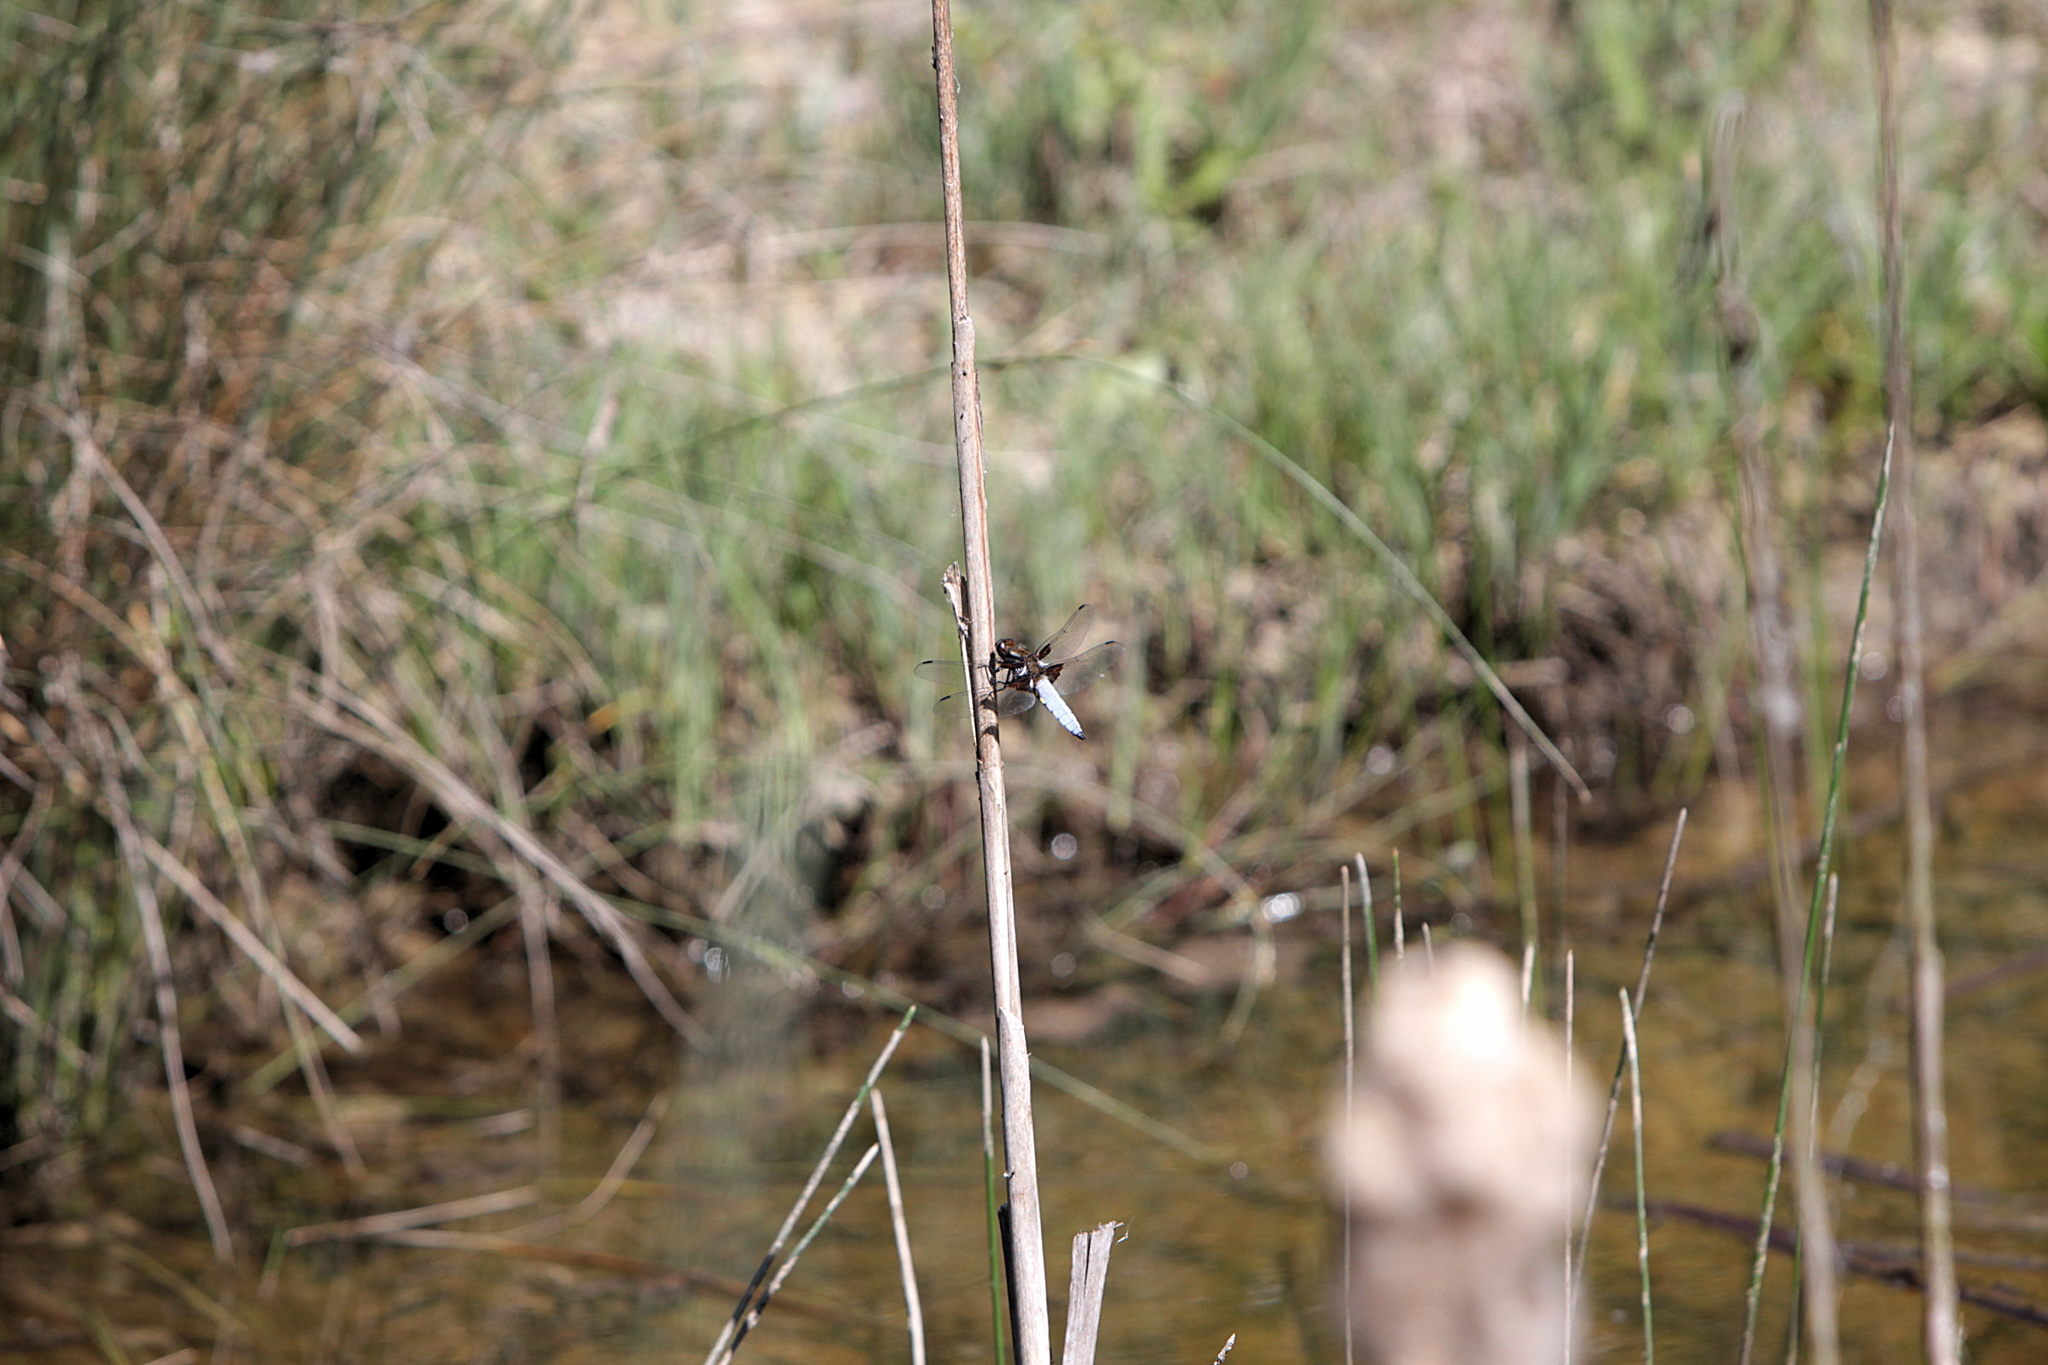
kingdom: Animalia
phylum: Arthropoda
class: Insecta
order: Odonata
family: Libellulidae
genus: Libellula
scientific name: Libellula depressa
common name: Broad-bodied chaser
